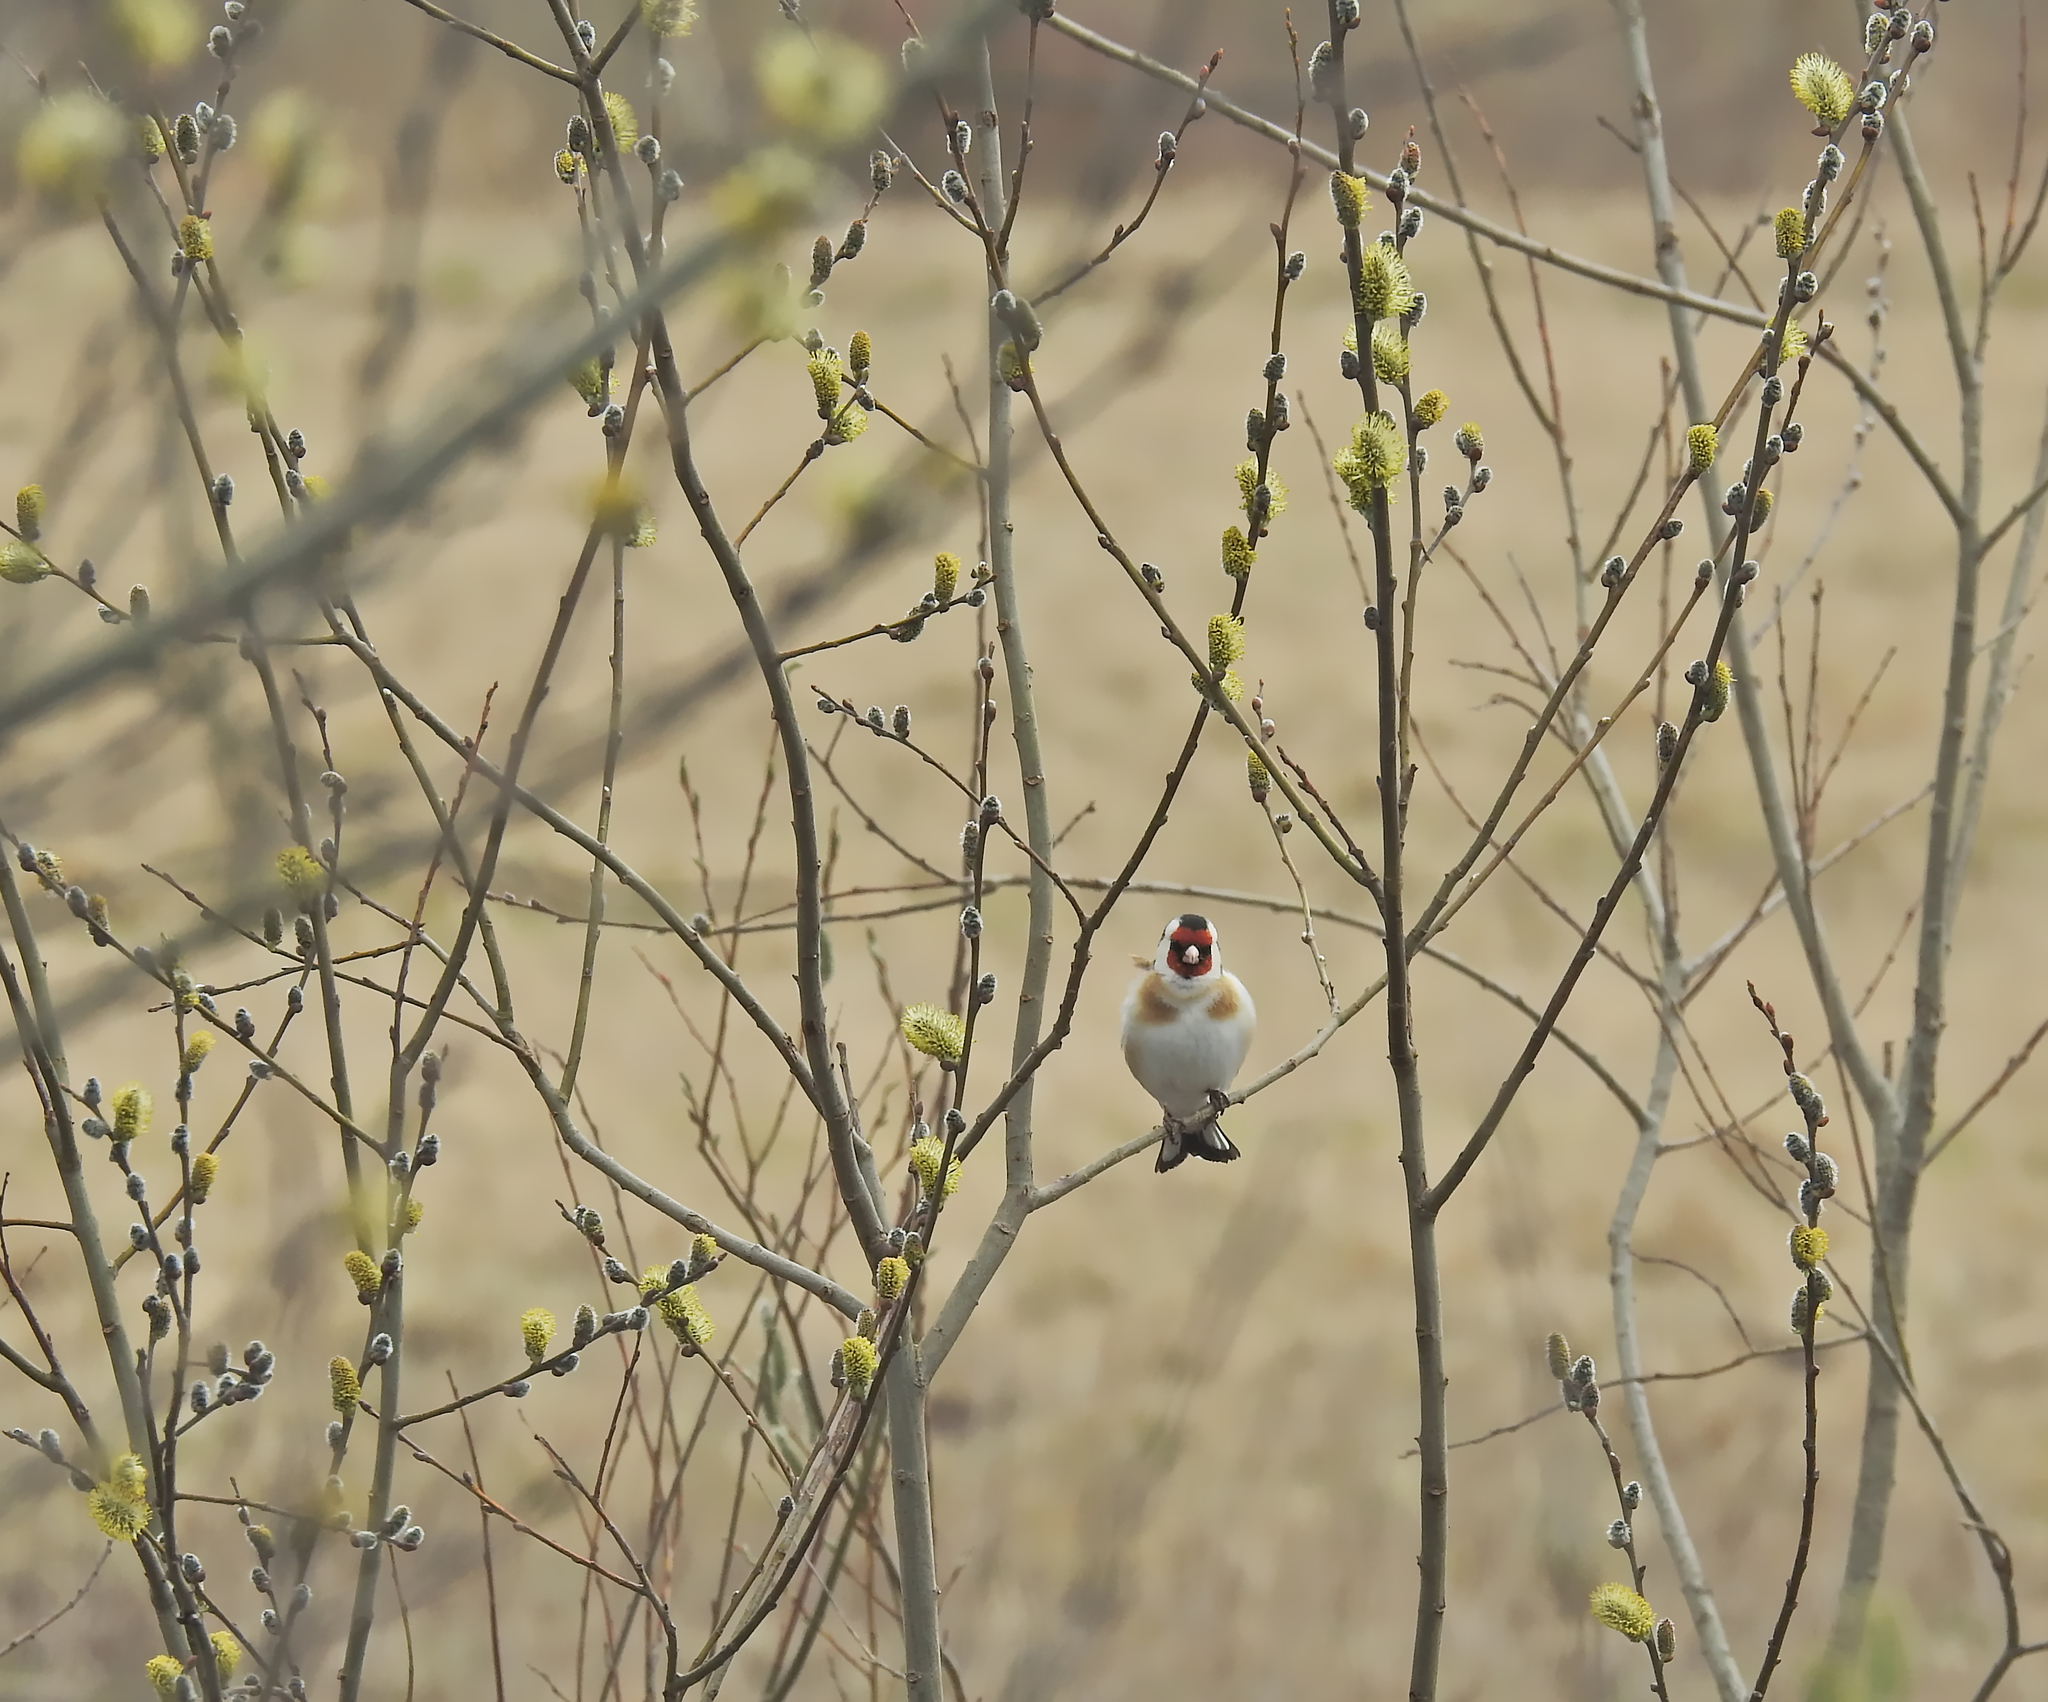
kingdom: Animalia
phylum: Chordata
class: Aves
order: Passeriformes
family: Fringillidae
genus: Carduelis
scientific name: Carduelis carduelis
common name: European goldfinch
